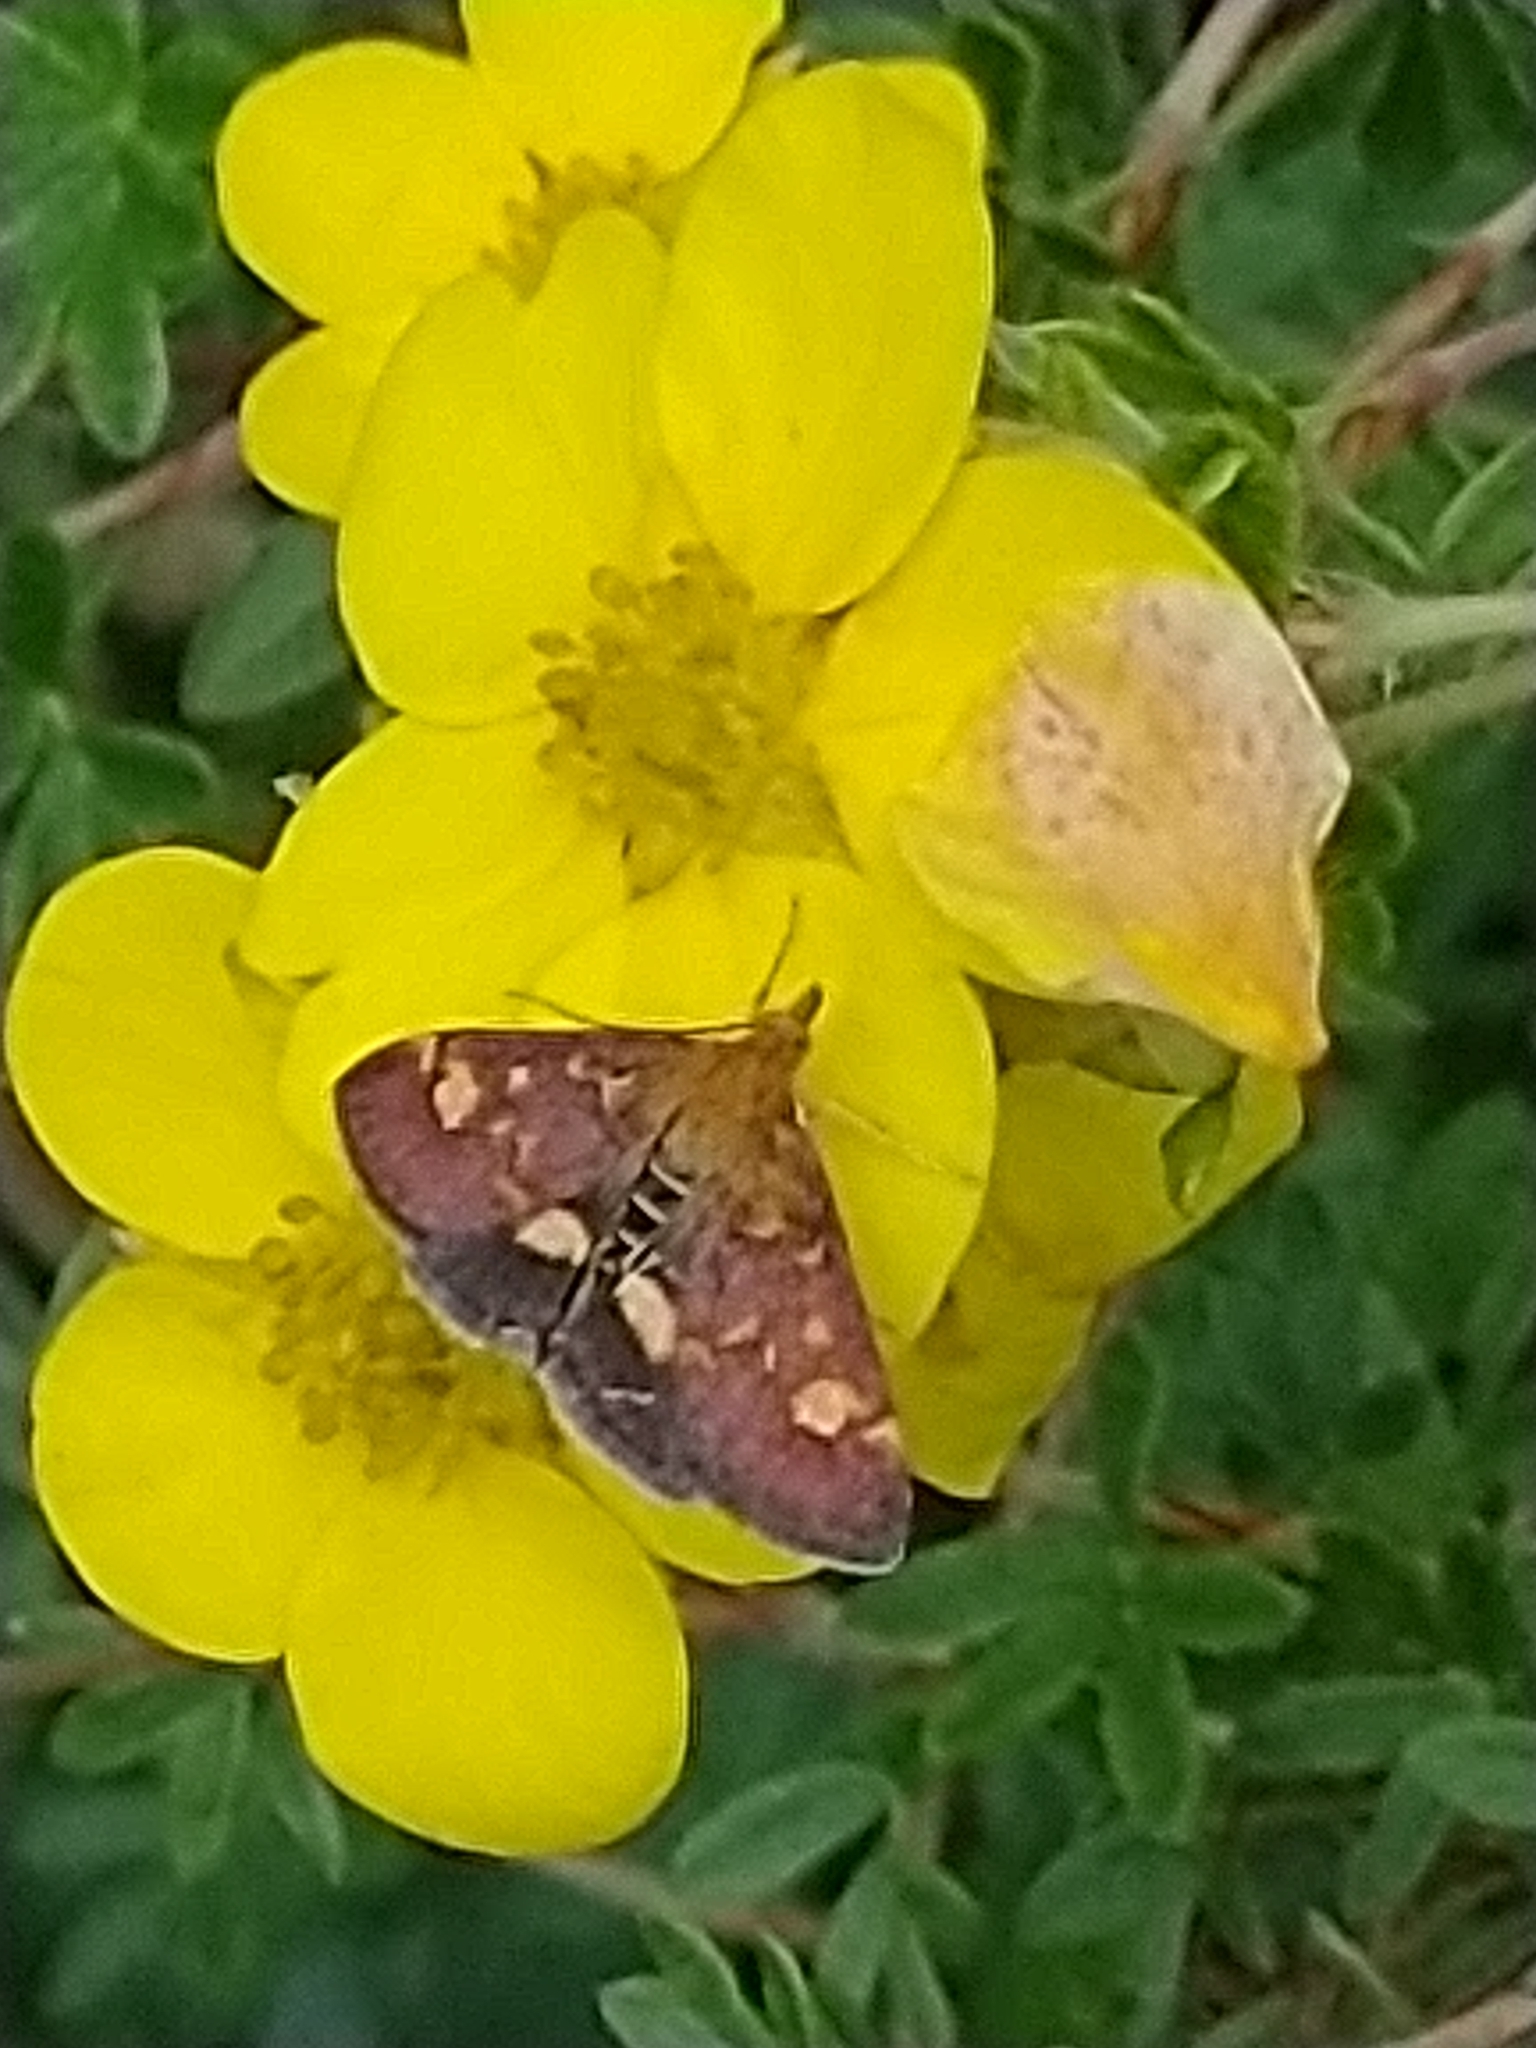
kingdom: Animalia
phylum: Arthropoda
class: Insecta
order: Lepidoptera
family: Crambidae
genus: Pyrausta
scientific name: Pyrausta aurata
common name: Small purple & gold
